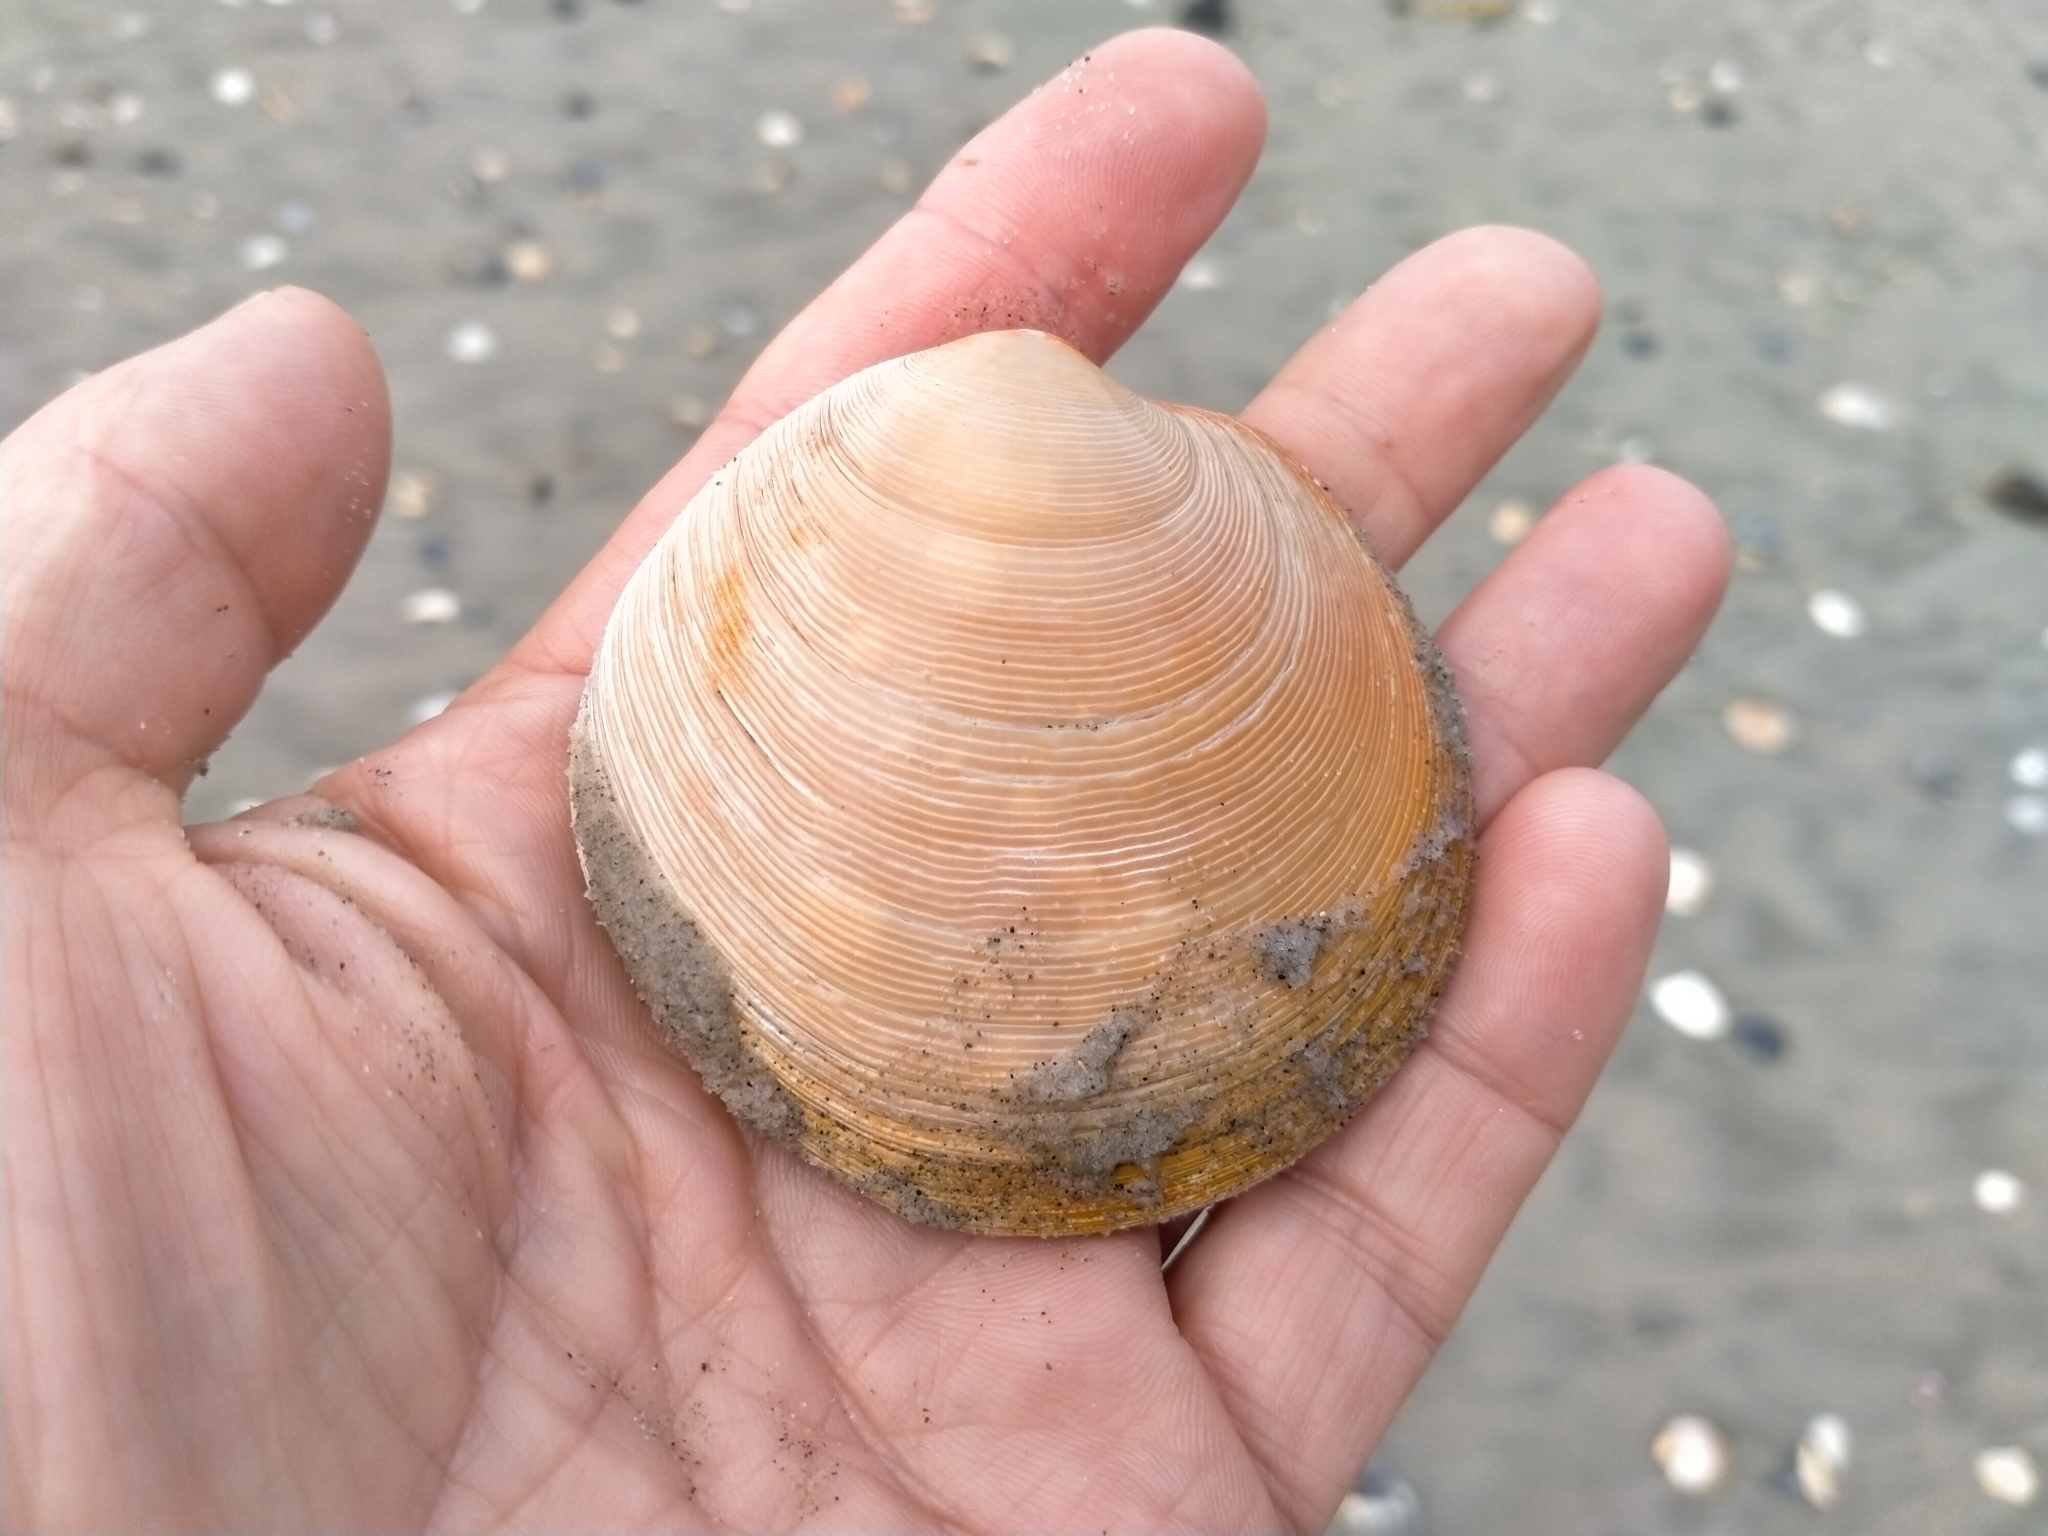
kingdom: Animalia
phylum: Mollusca
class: Bivalvia
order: Venerida
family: Veneridae
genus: Dosinia
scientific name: Dosinia anus
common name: Old-woman dosinia
